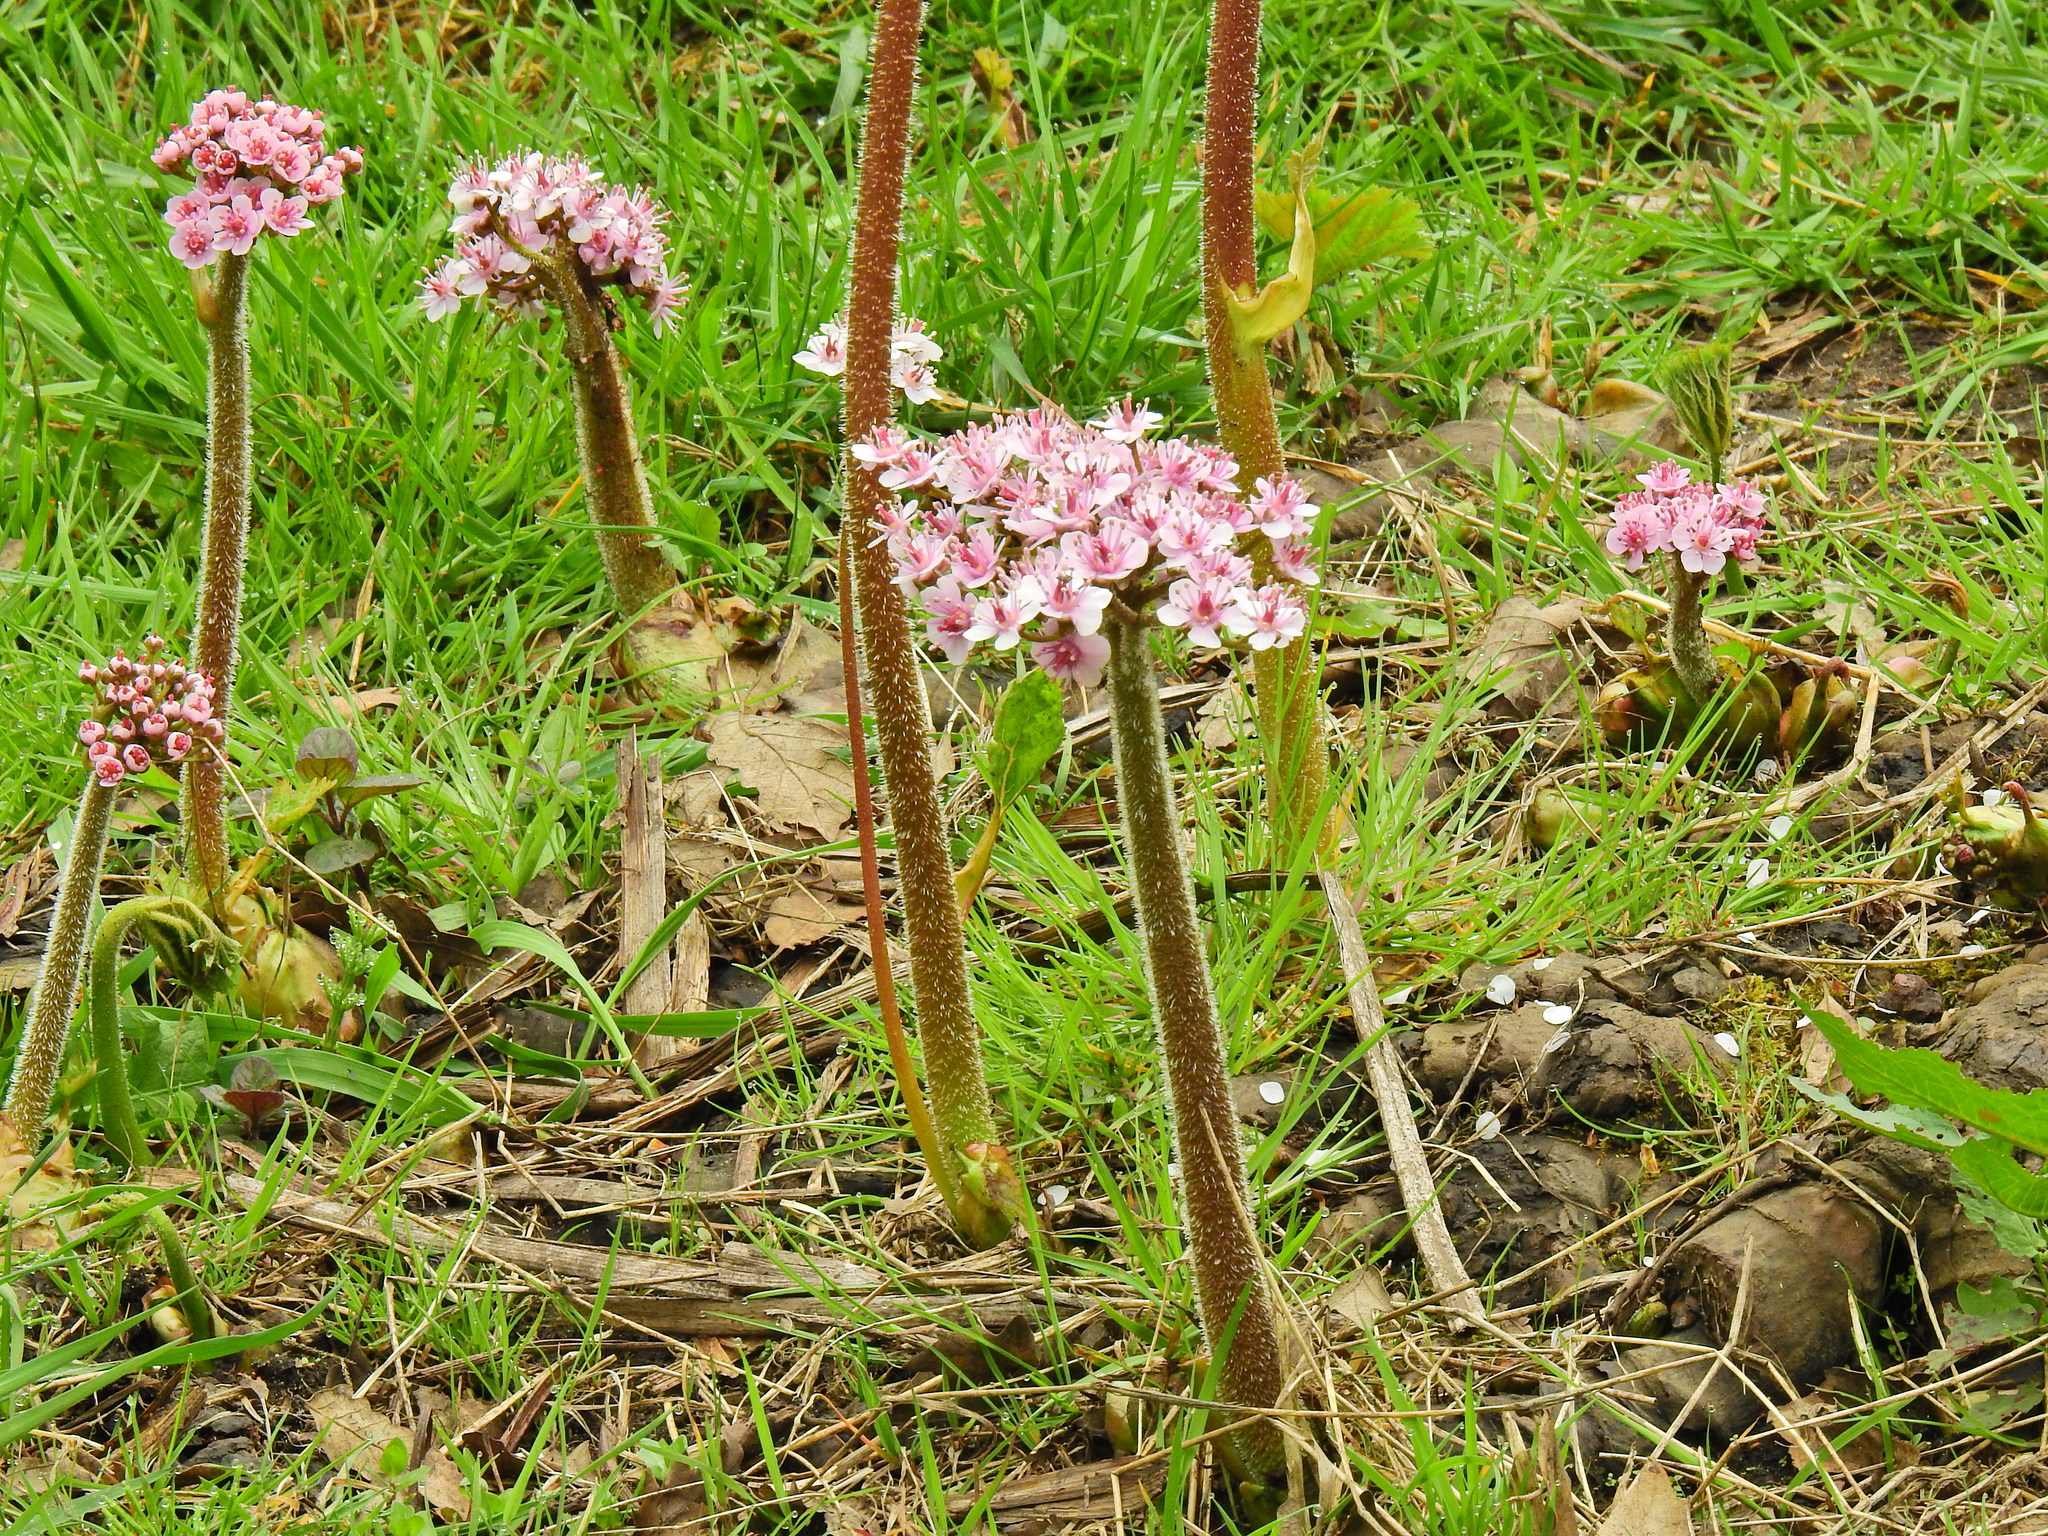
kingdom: Plantae
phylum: Tracheophyta
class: Magnoliopsida
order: Saxifragales
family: Saxifragaceae
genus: Darmera
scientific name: Darmera peltata
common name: Indian-rhubarb
